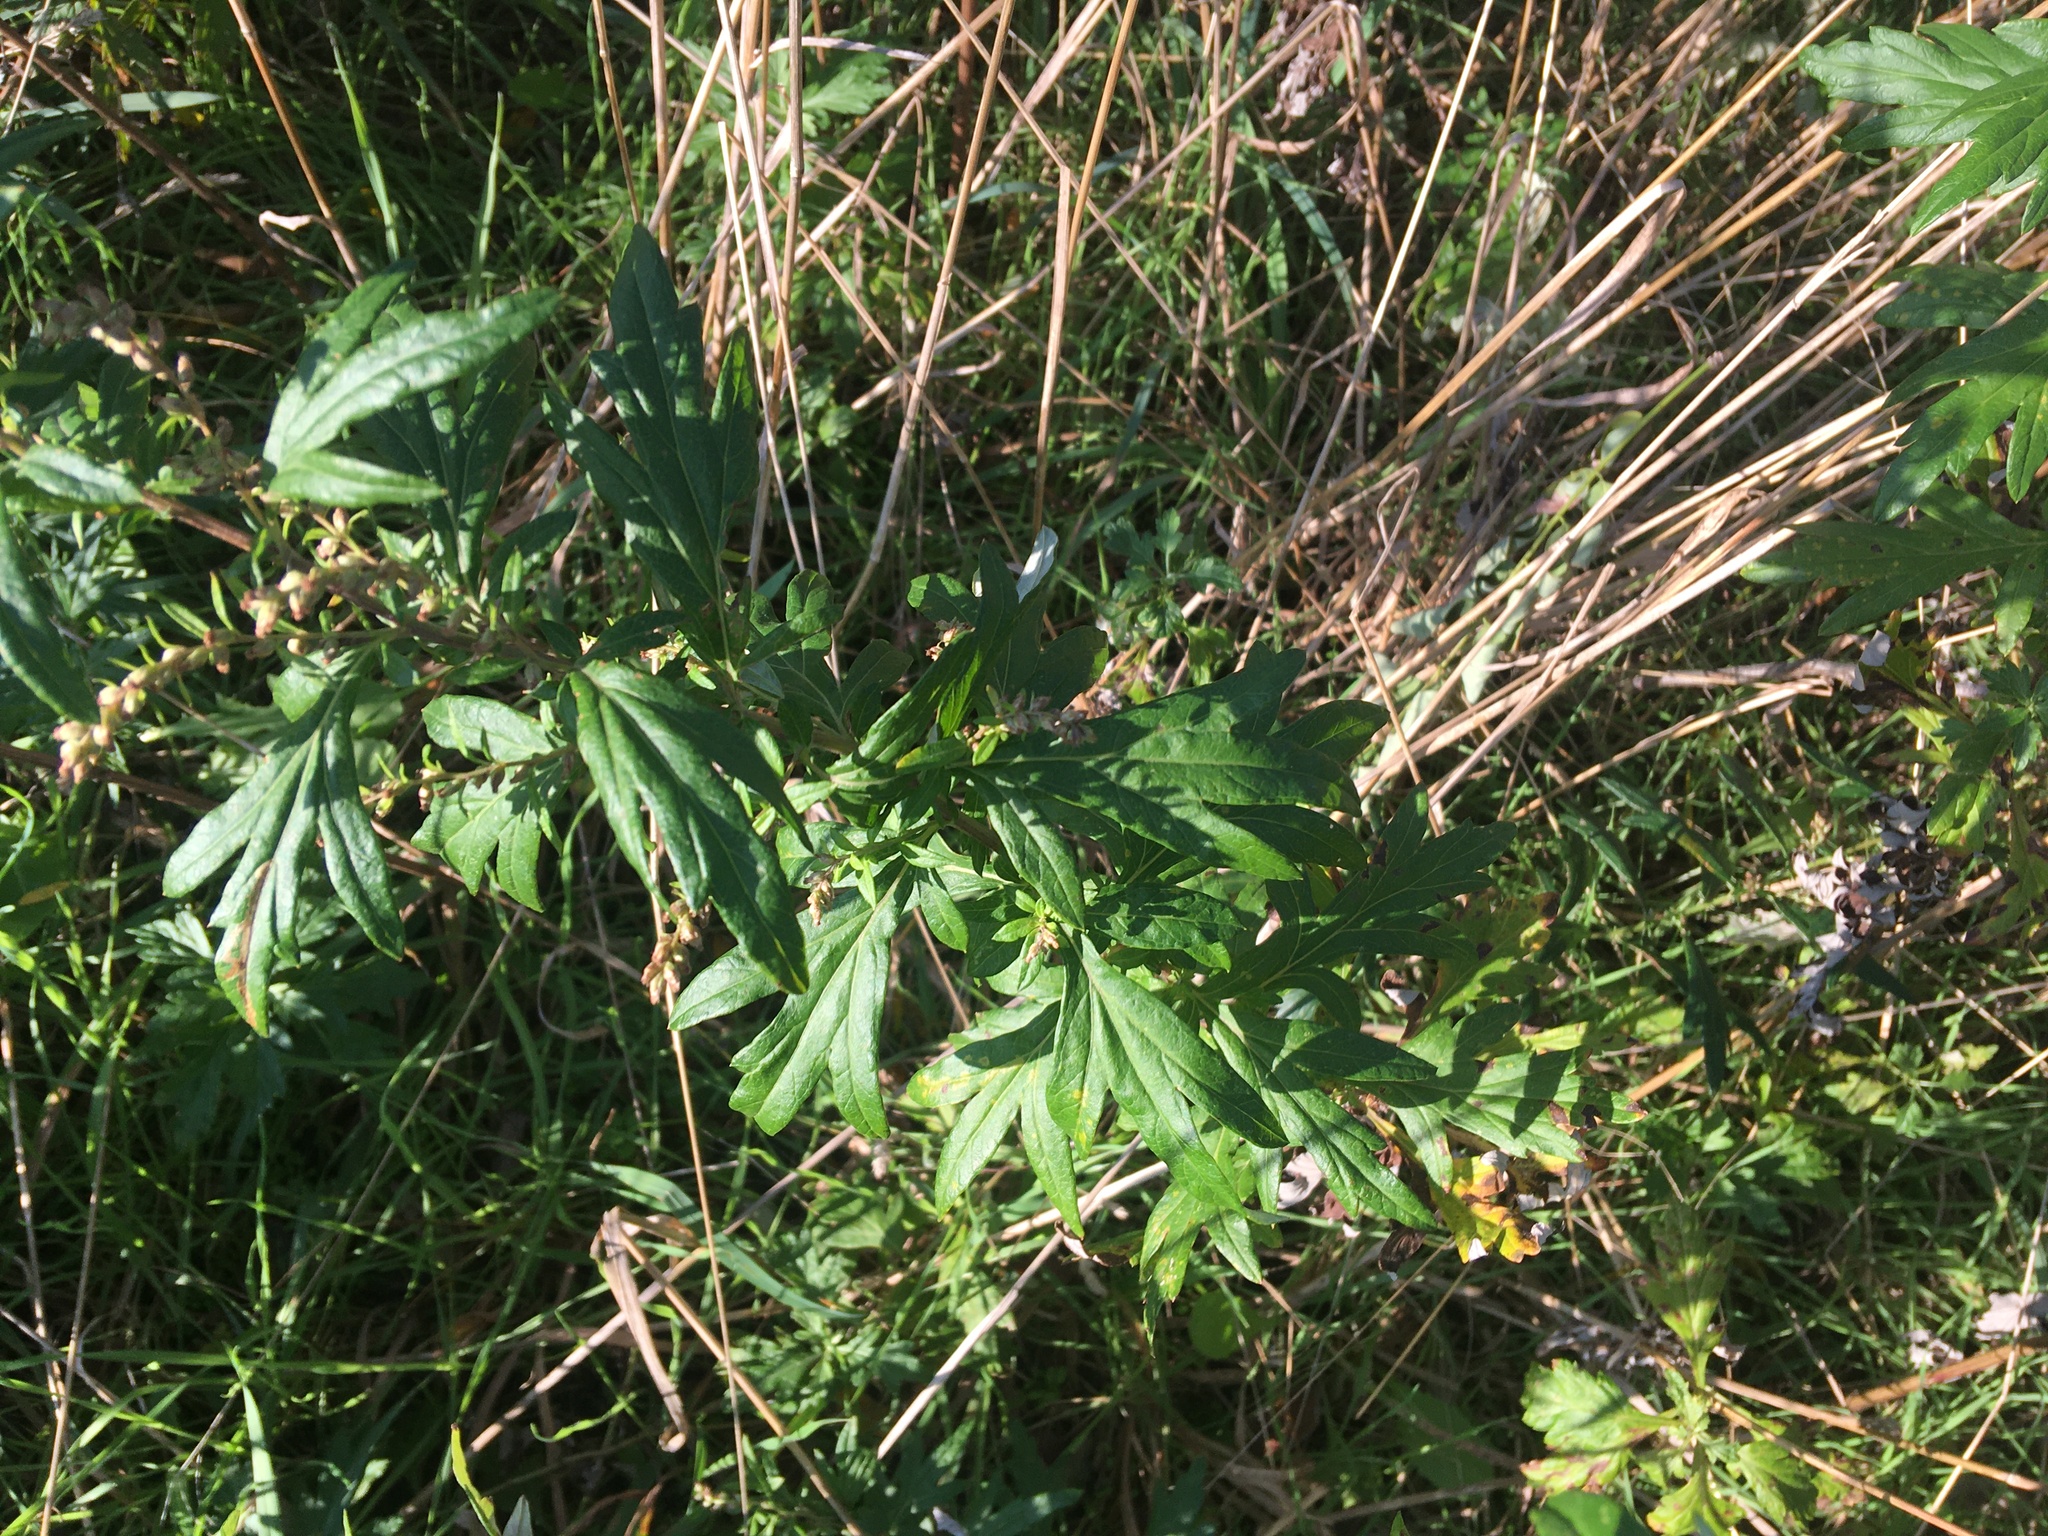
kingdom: Plantae
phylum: Tracheophyta
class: Magnoliopsida
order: Asterales
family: Asteraceae
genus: Artemisia
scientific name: Artemisia vulgaris
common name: Mugwort
